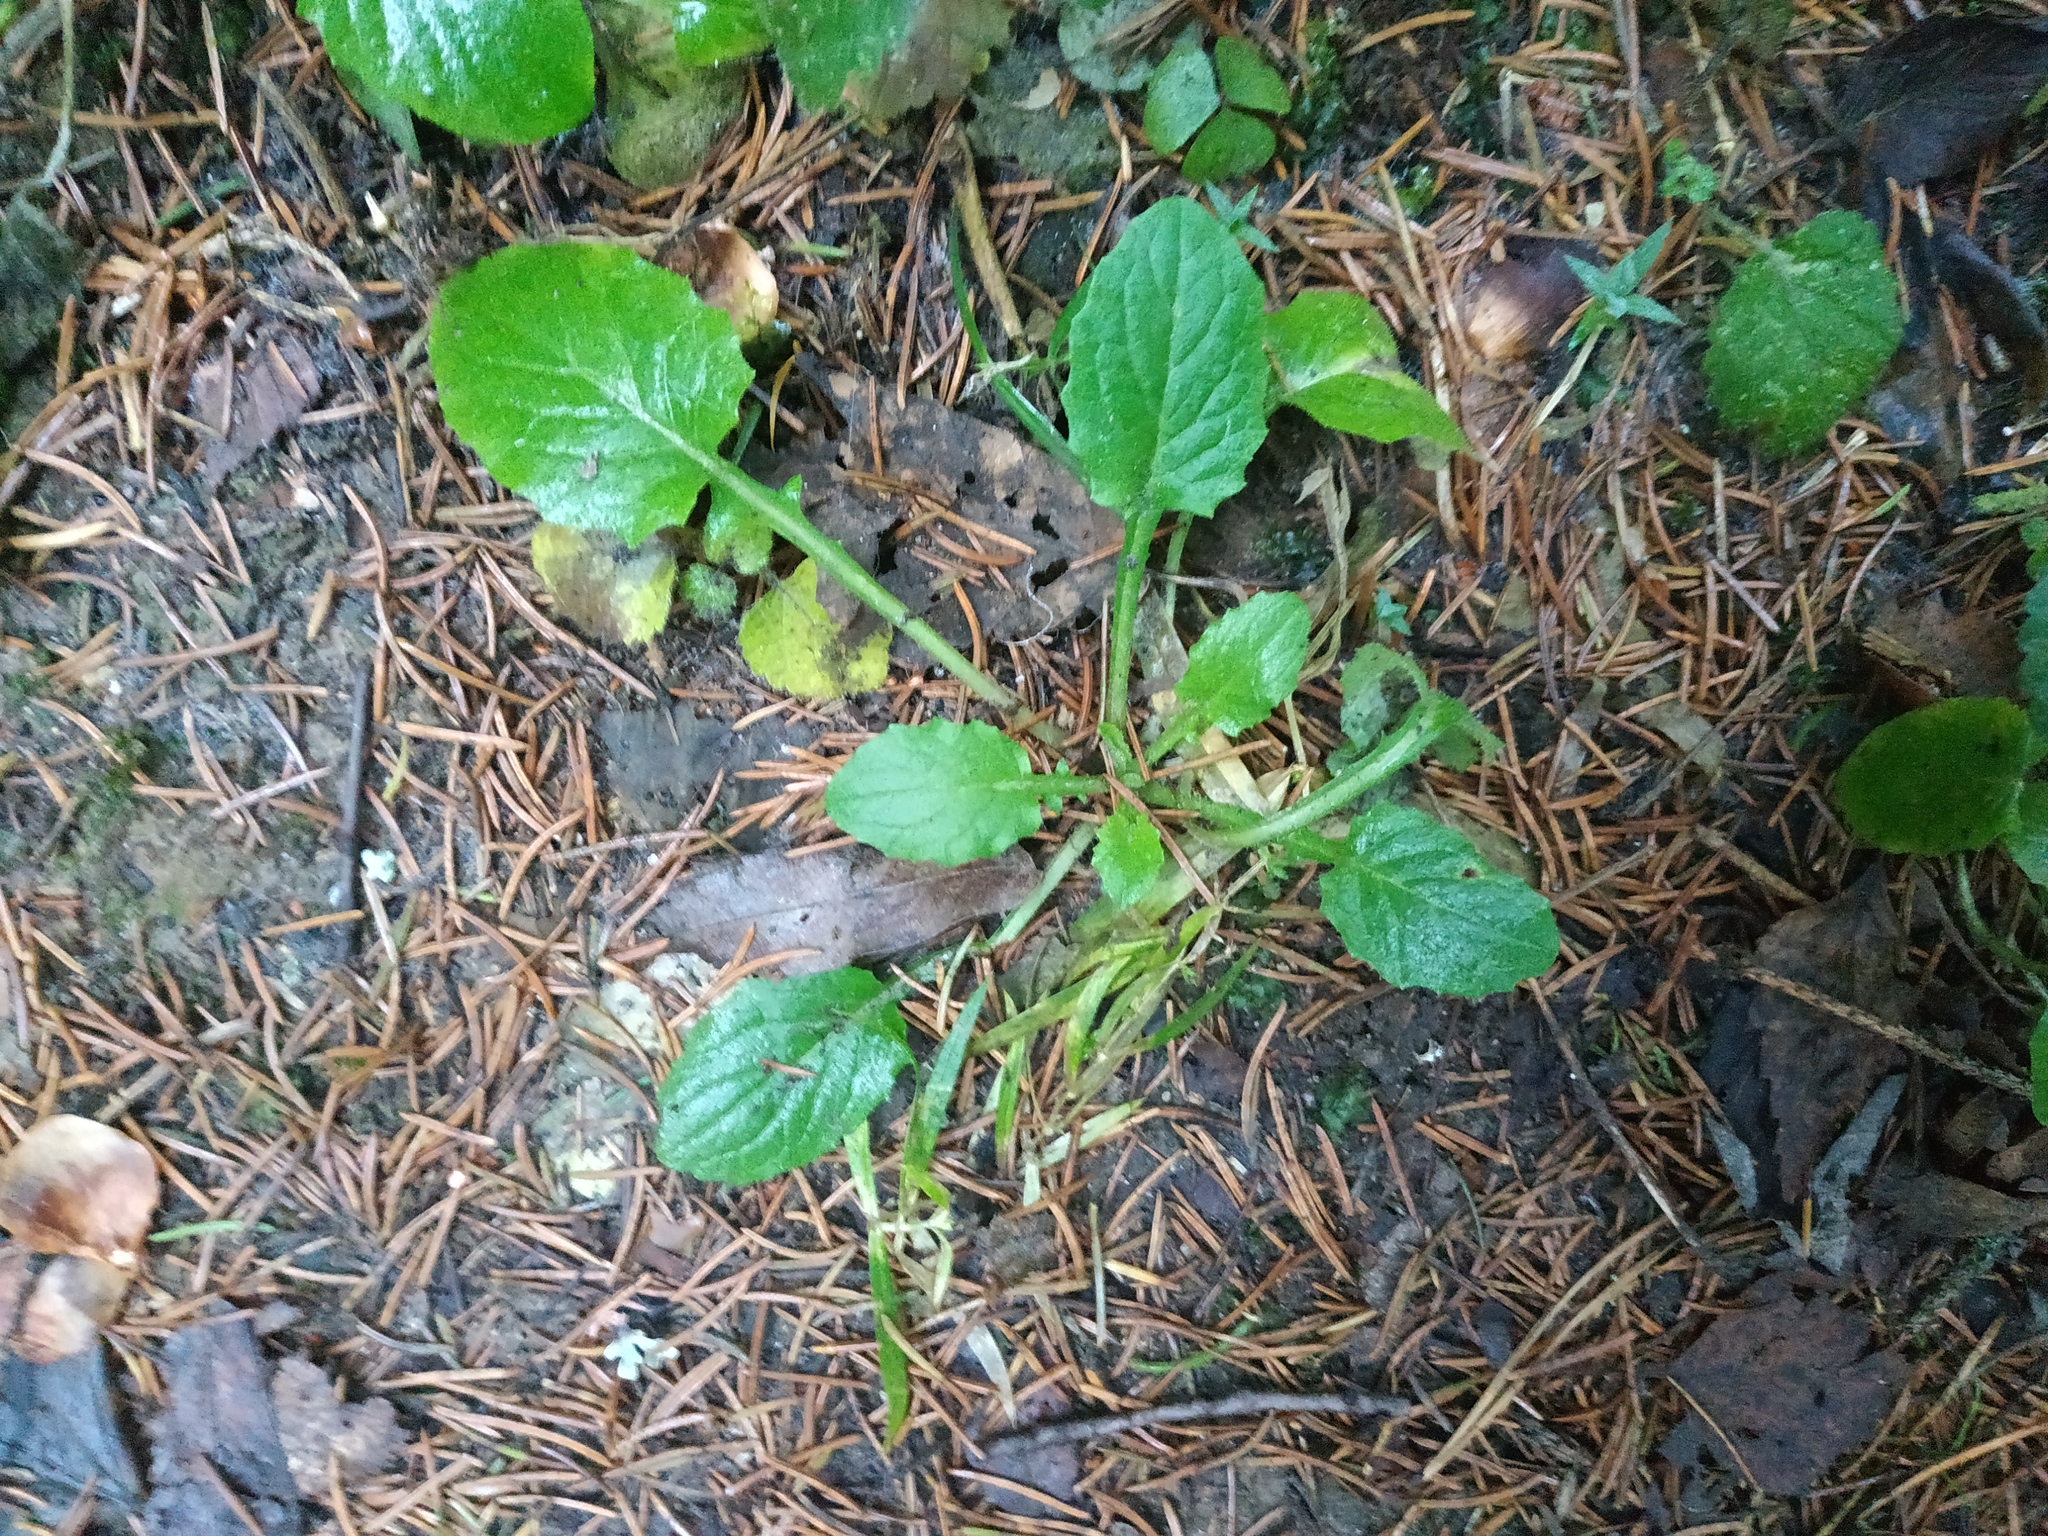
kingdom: Plantae
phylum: Tracheophyta
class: Magnoliopsida
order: Asterales
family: Asteraceae
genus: Lapsana
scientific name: Lapsana communis
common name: Nipplewort
